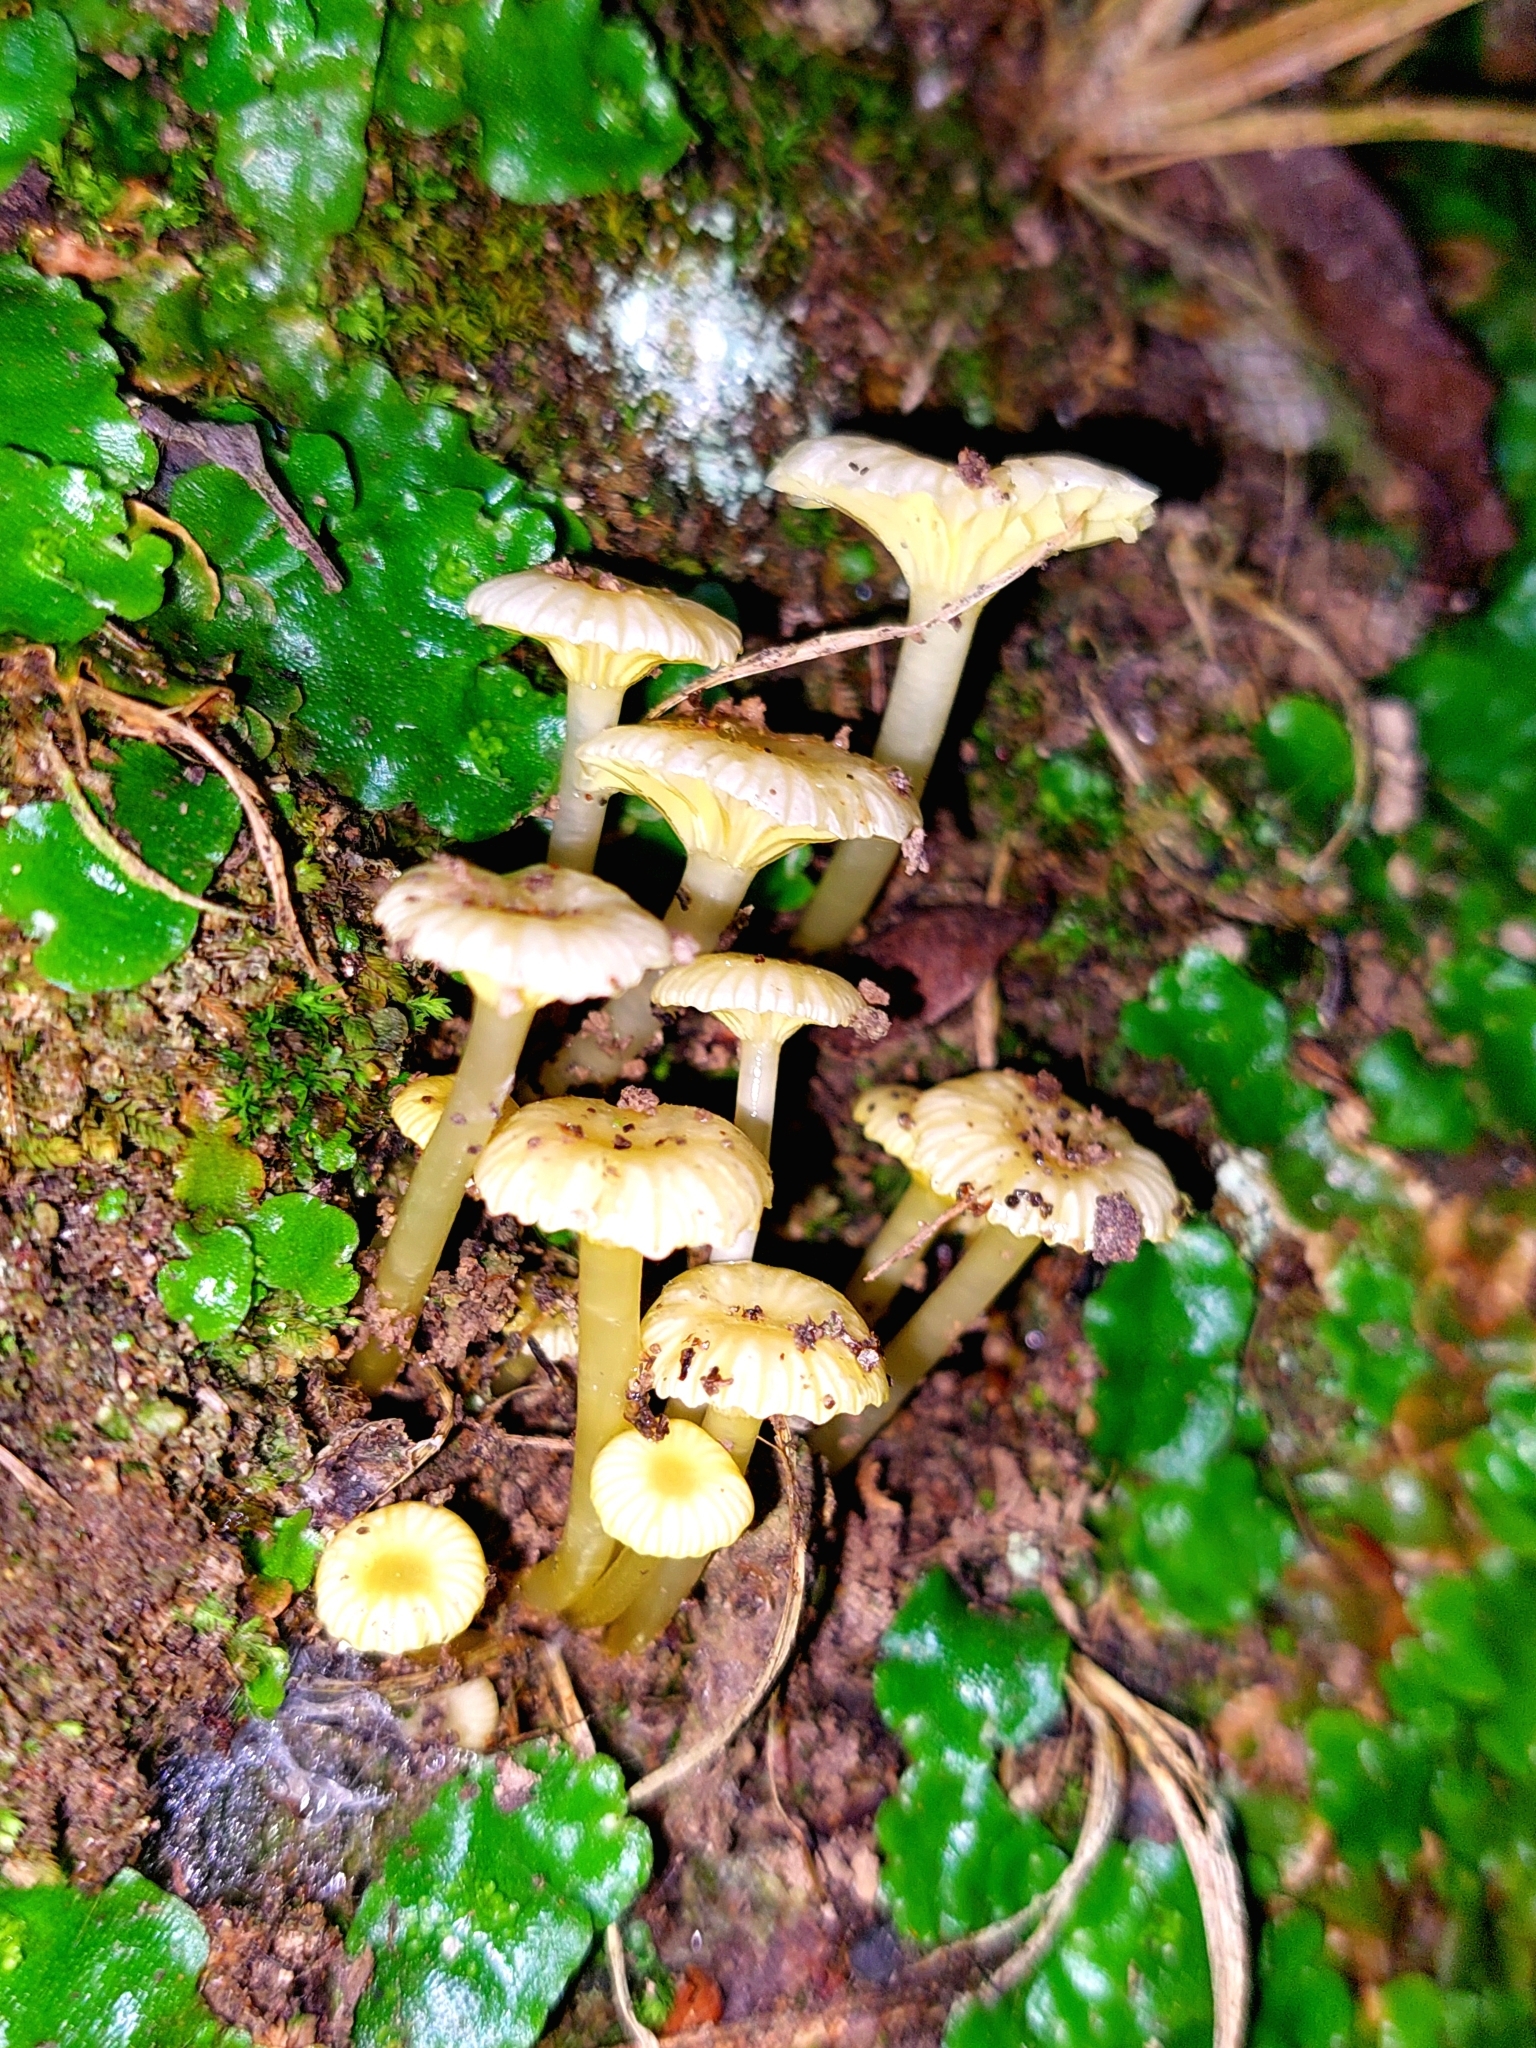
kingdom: Fungi
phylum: Basidiomycota
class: Agaricomycetes
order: Agaricales
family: Hygrophoraceae
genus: Gloioxanthomyces
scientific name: Gloioxanthomyces
